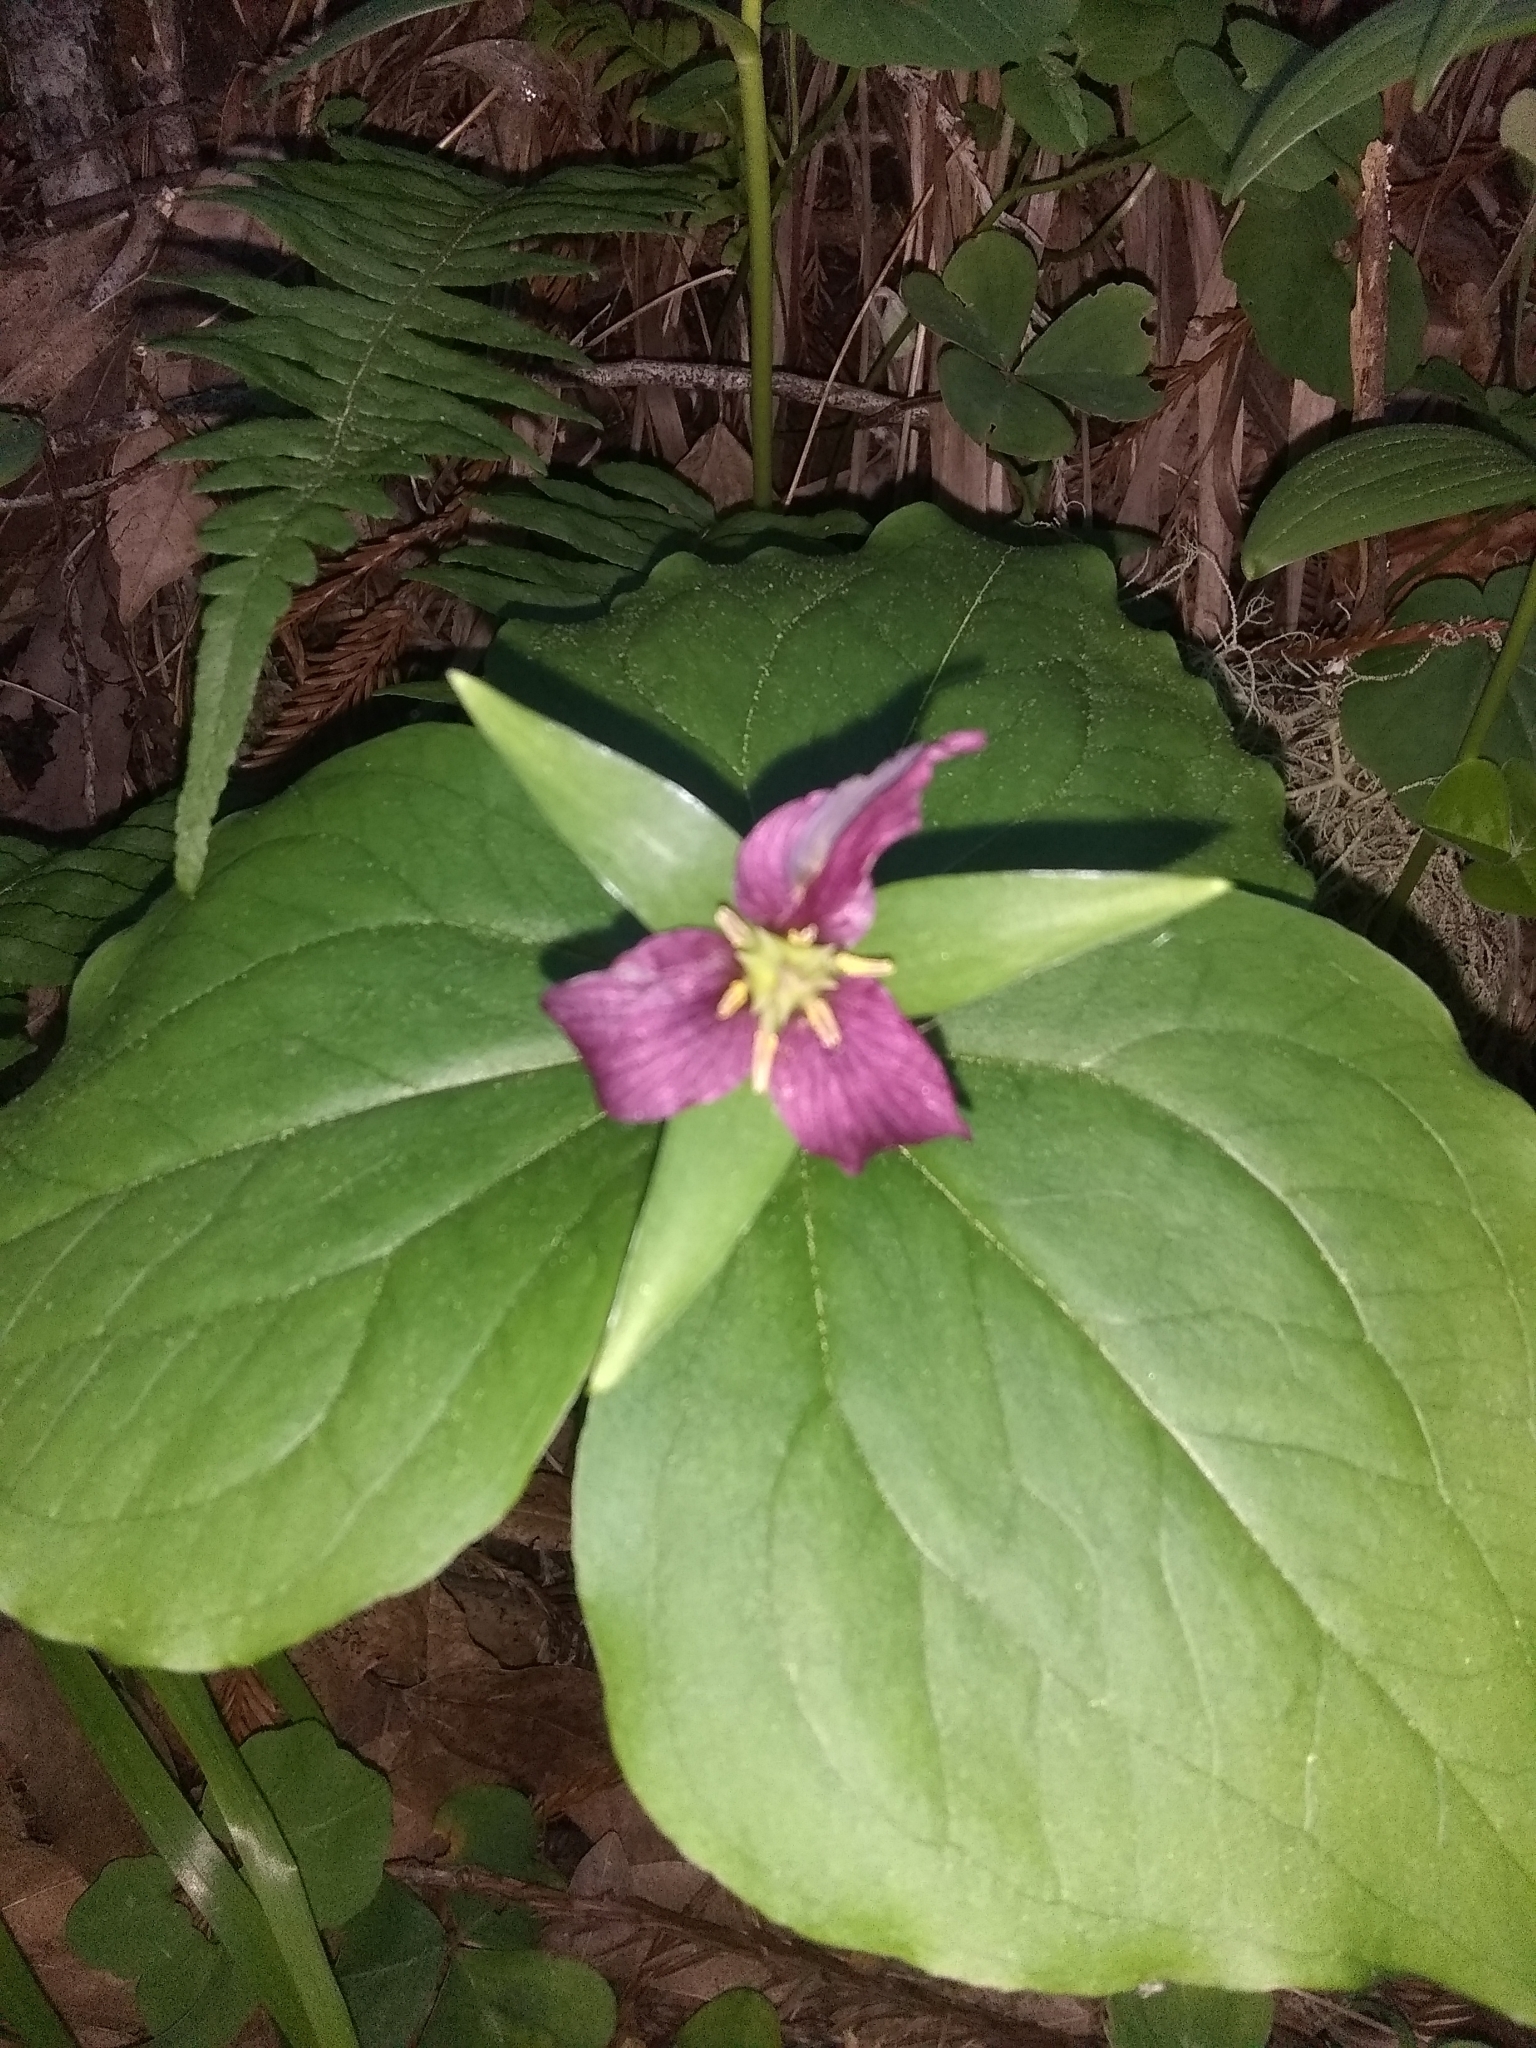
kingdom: Plantae
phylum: Tracheophyta
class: Liliopsida
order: Liliales
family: Melanthiaceae
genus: Trillium
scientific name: Trillium ovatum
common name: Pacific trillium
